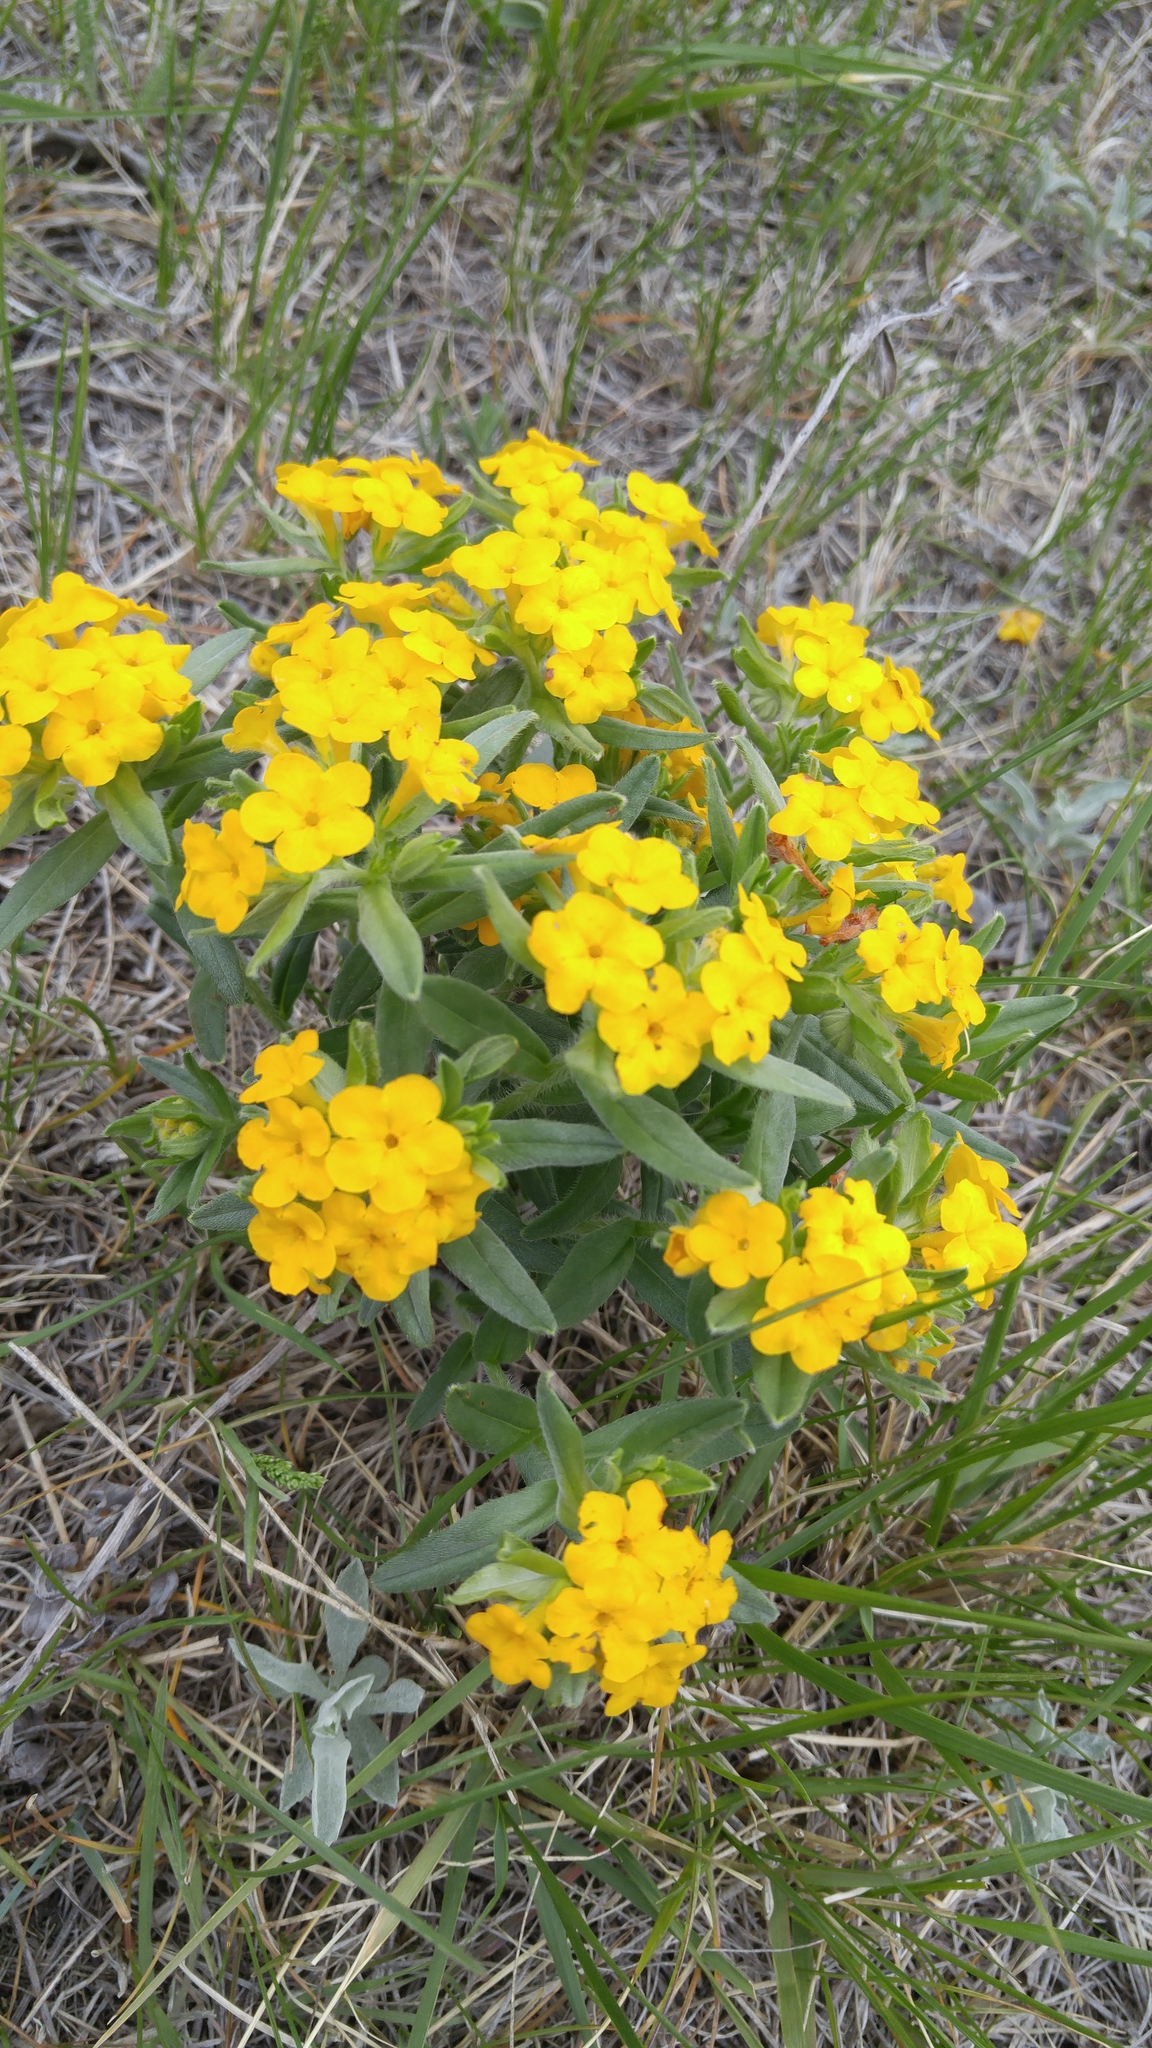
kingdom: Plantae
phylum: Tracheophyta
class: Magnoliopsida
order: Boraginales
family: Boraginaceae
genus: Lithospermum
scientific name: Lithospermum canescens
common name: Hoary puccoon
